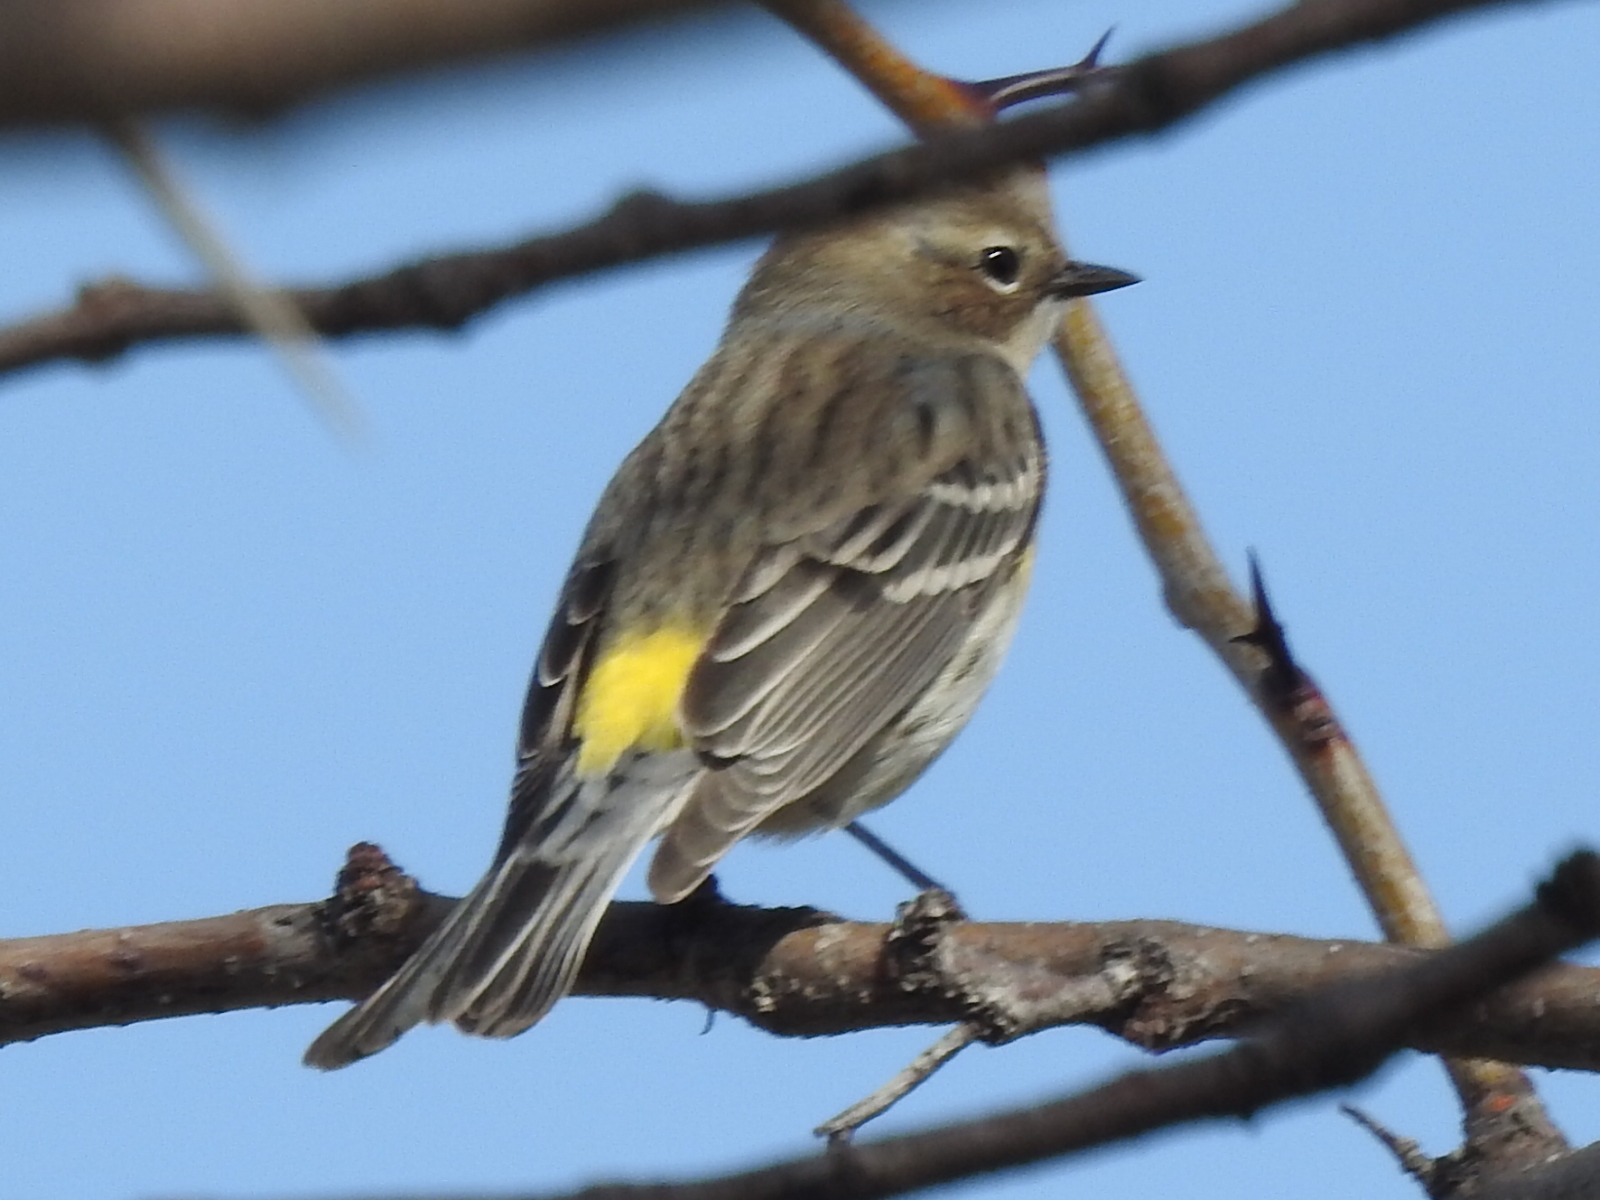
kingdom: Animalia
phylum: Chordata
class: Aves
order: Passeriformes
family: Parulidae
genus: Setophaga
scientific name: Setophaga coronata
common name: Myrtle warbler
